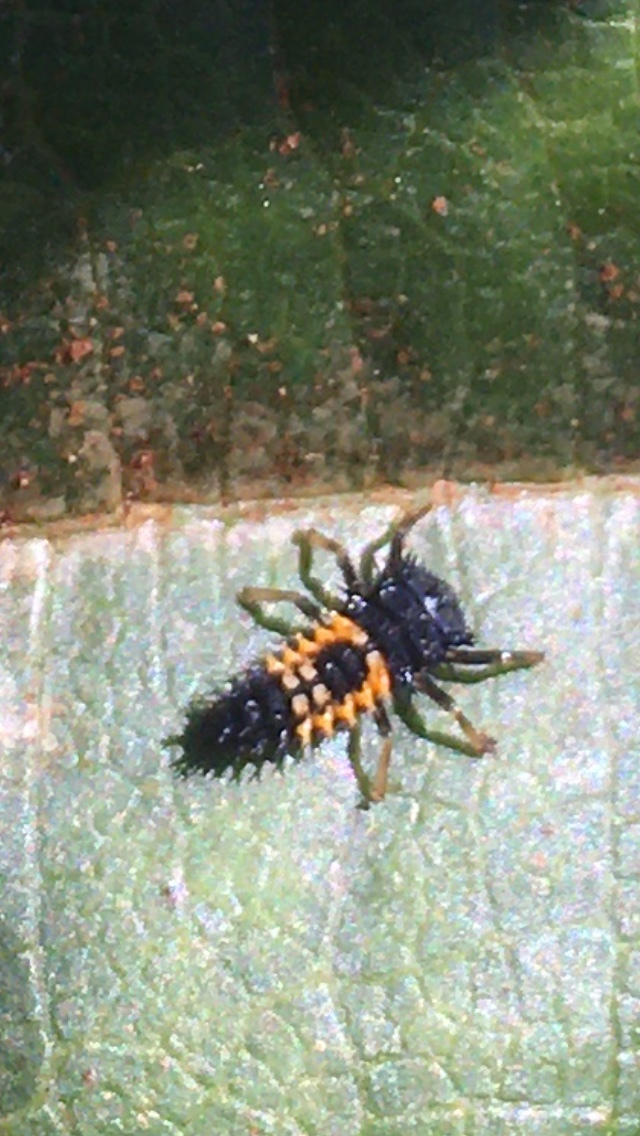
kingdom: Animalia
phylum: Arthropoda
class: Insecta
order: Coleoptera
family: Coccinellidae
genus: Harmonia
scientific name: Harmonia axyridis
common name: Harlequin ladybird
